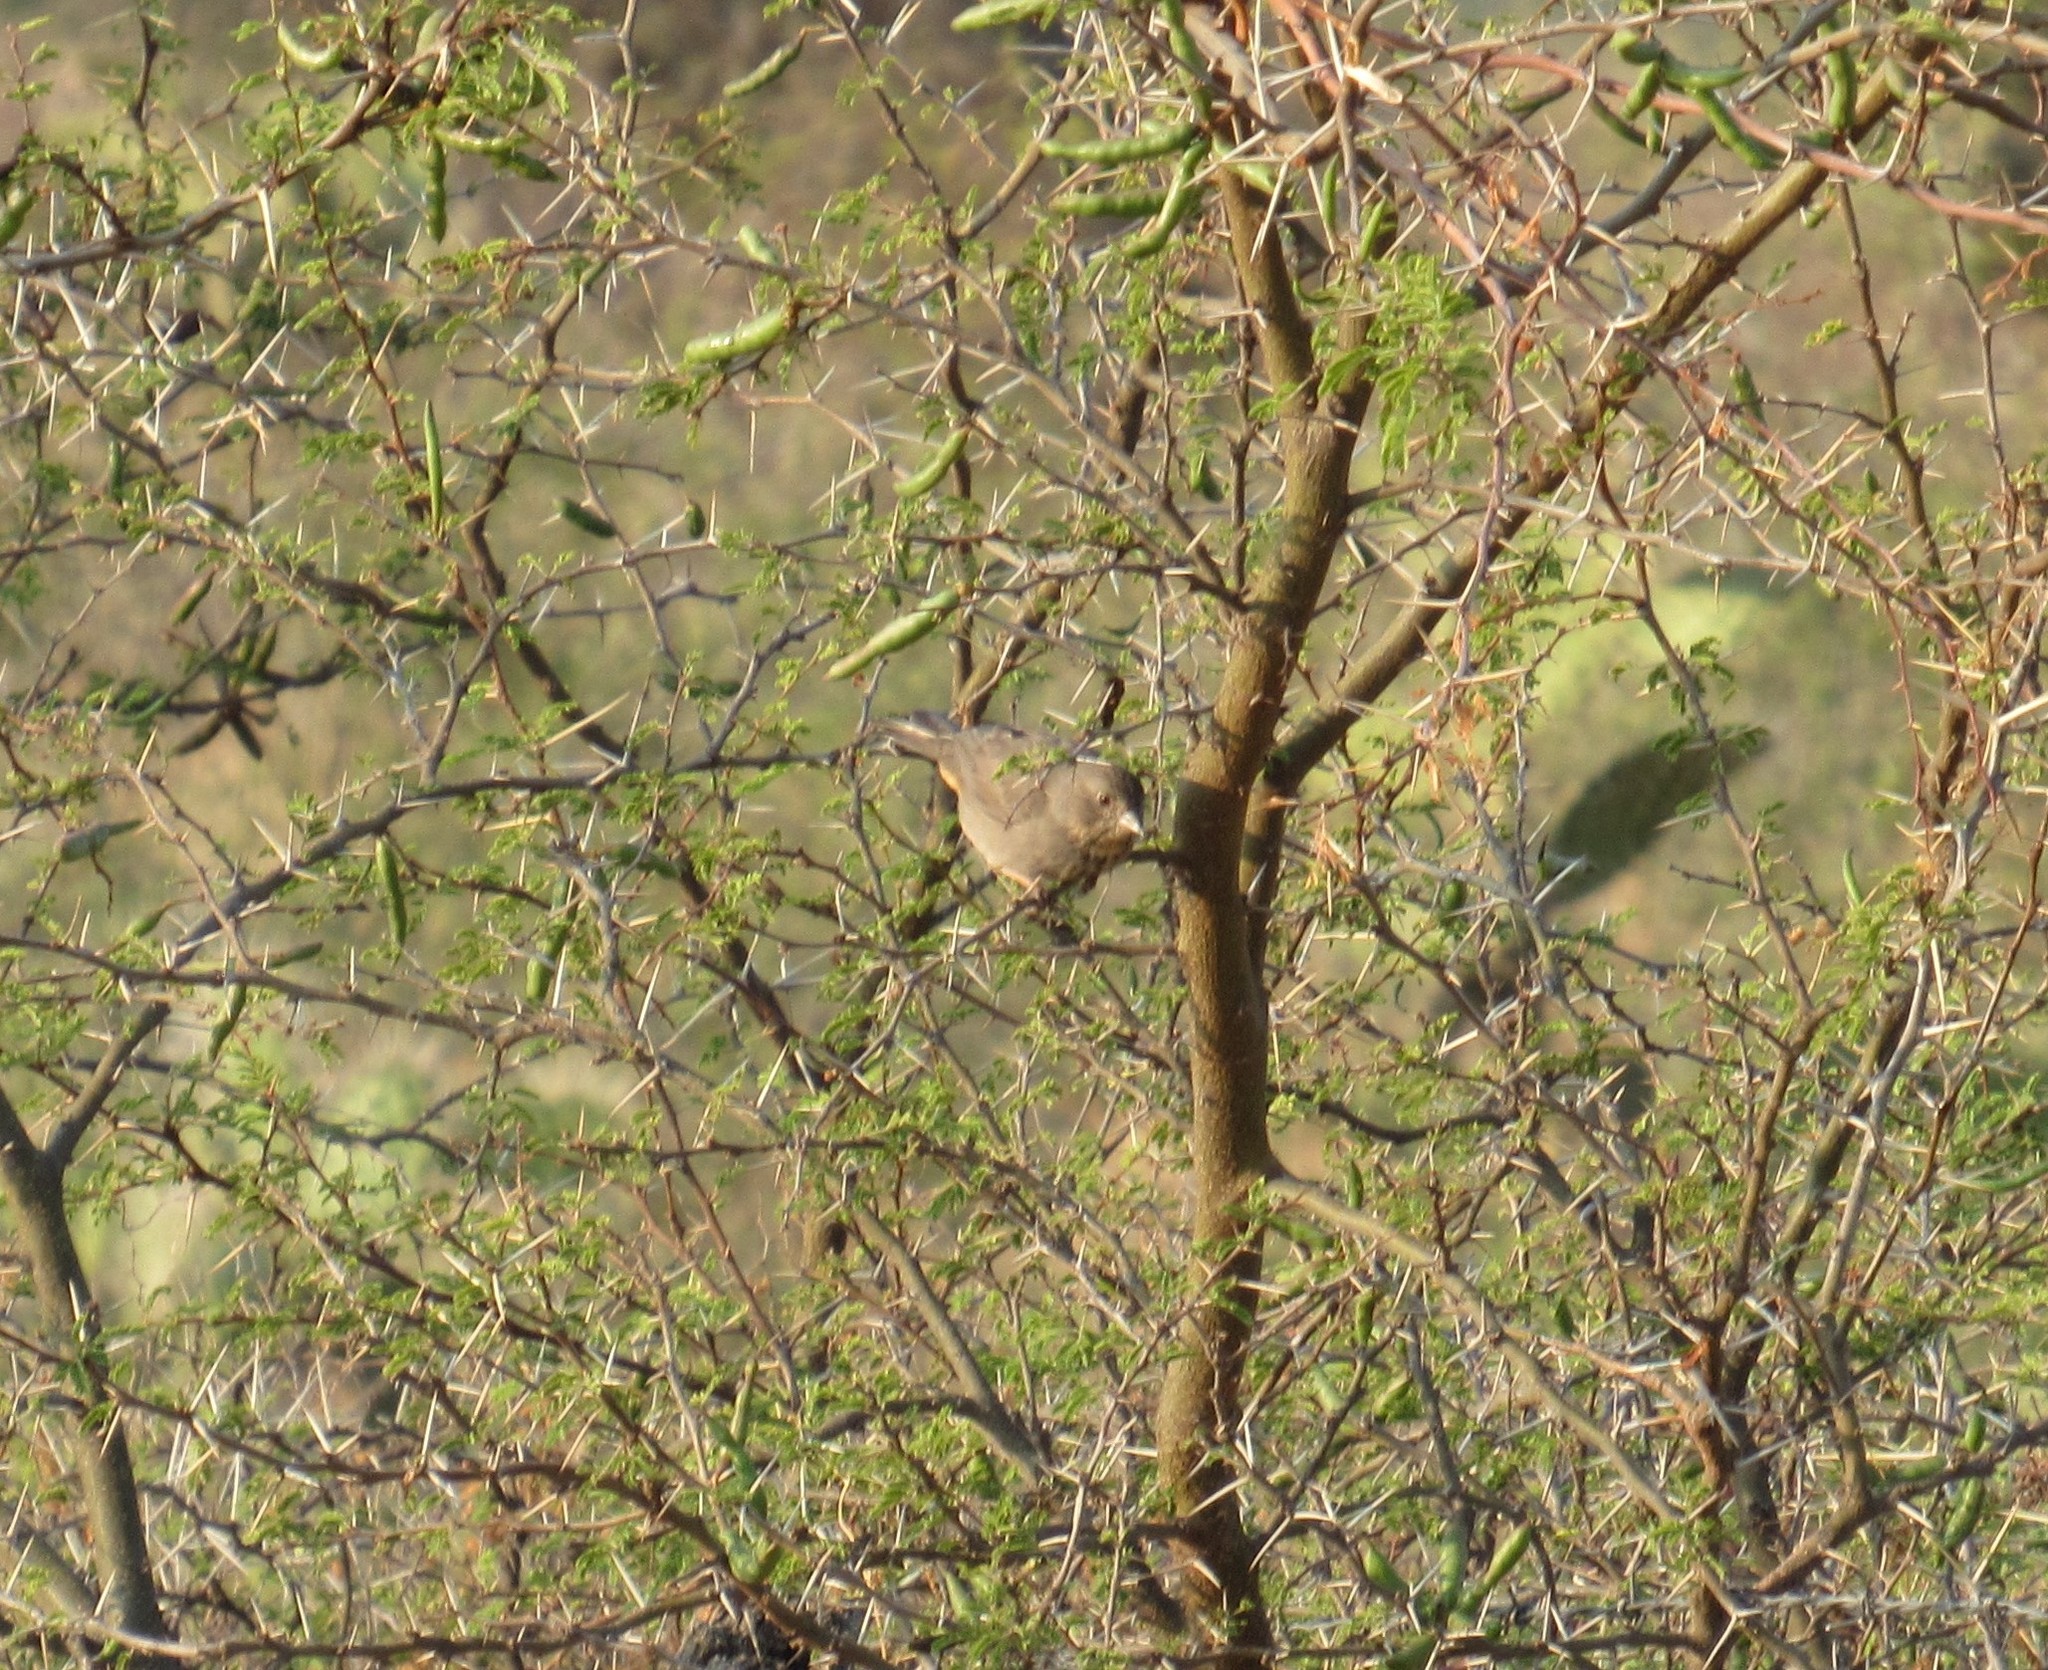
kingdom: Animalia
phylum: Chordata
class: Aves
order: Passeriformes
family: Passerellidae
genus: Melozone
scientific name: Melozone fusca
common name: Canyon towhee
